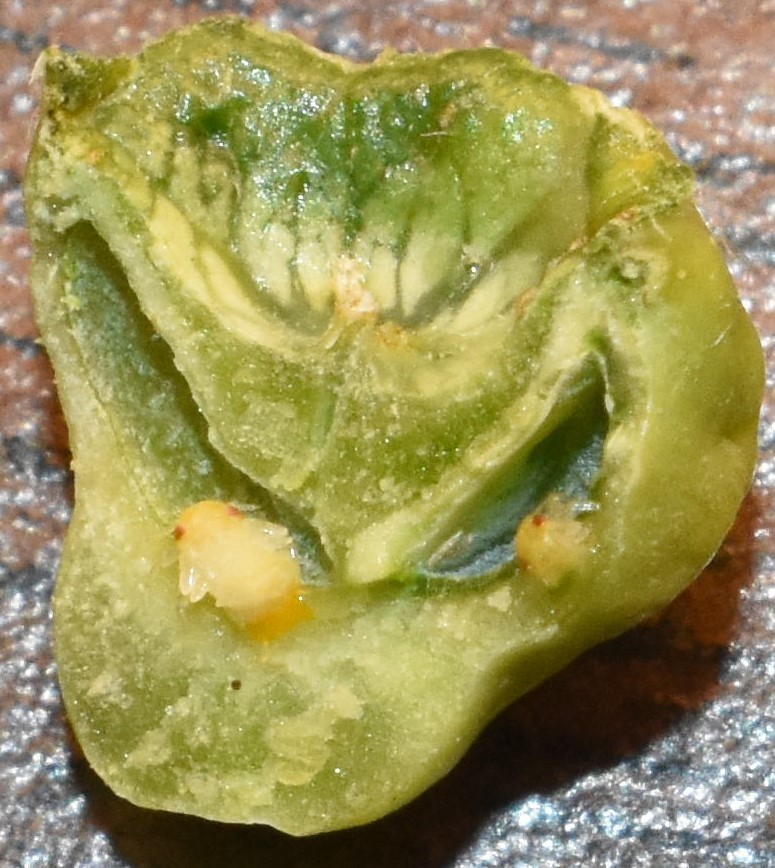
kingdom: Animalia
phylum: Arthropoda
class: Insecta
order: Hemiptera
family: Aphalaridae
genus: Pachypsylla
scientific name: Pachypsylla celtidismamma
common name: Hackberry nipplegall psyllid
